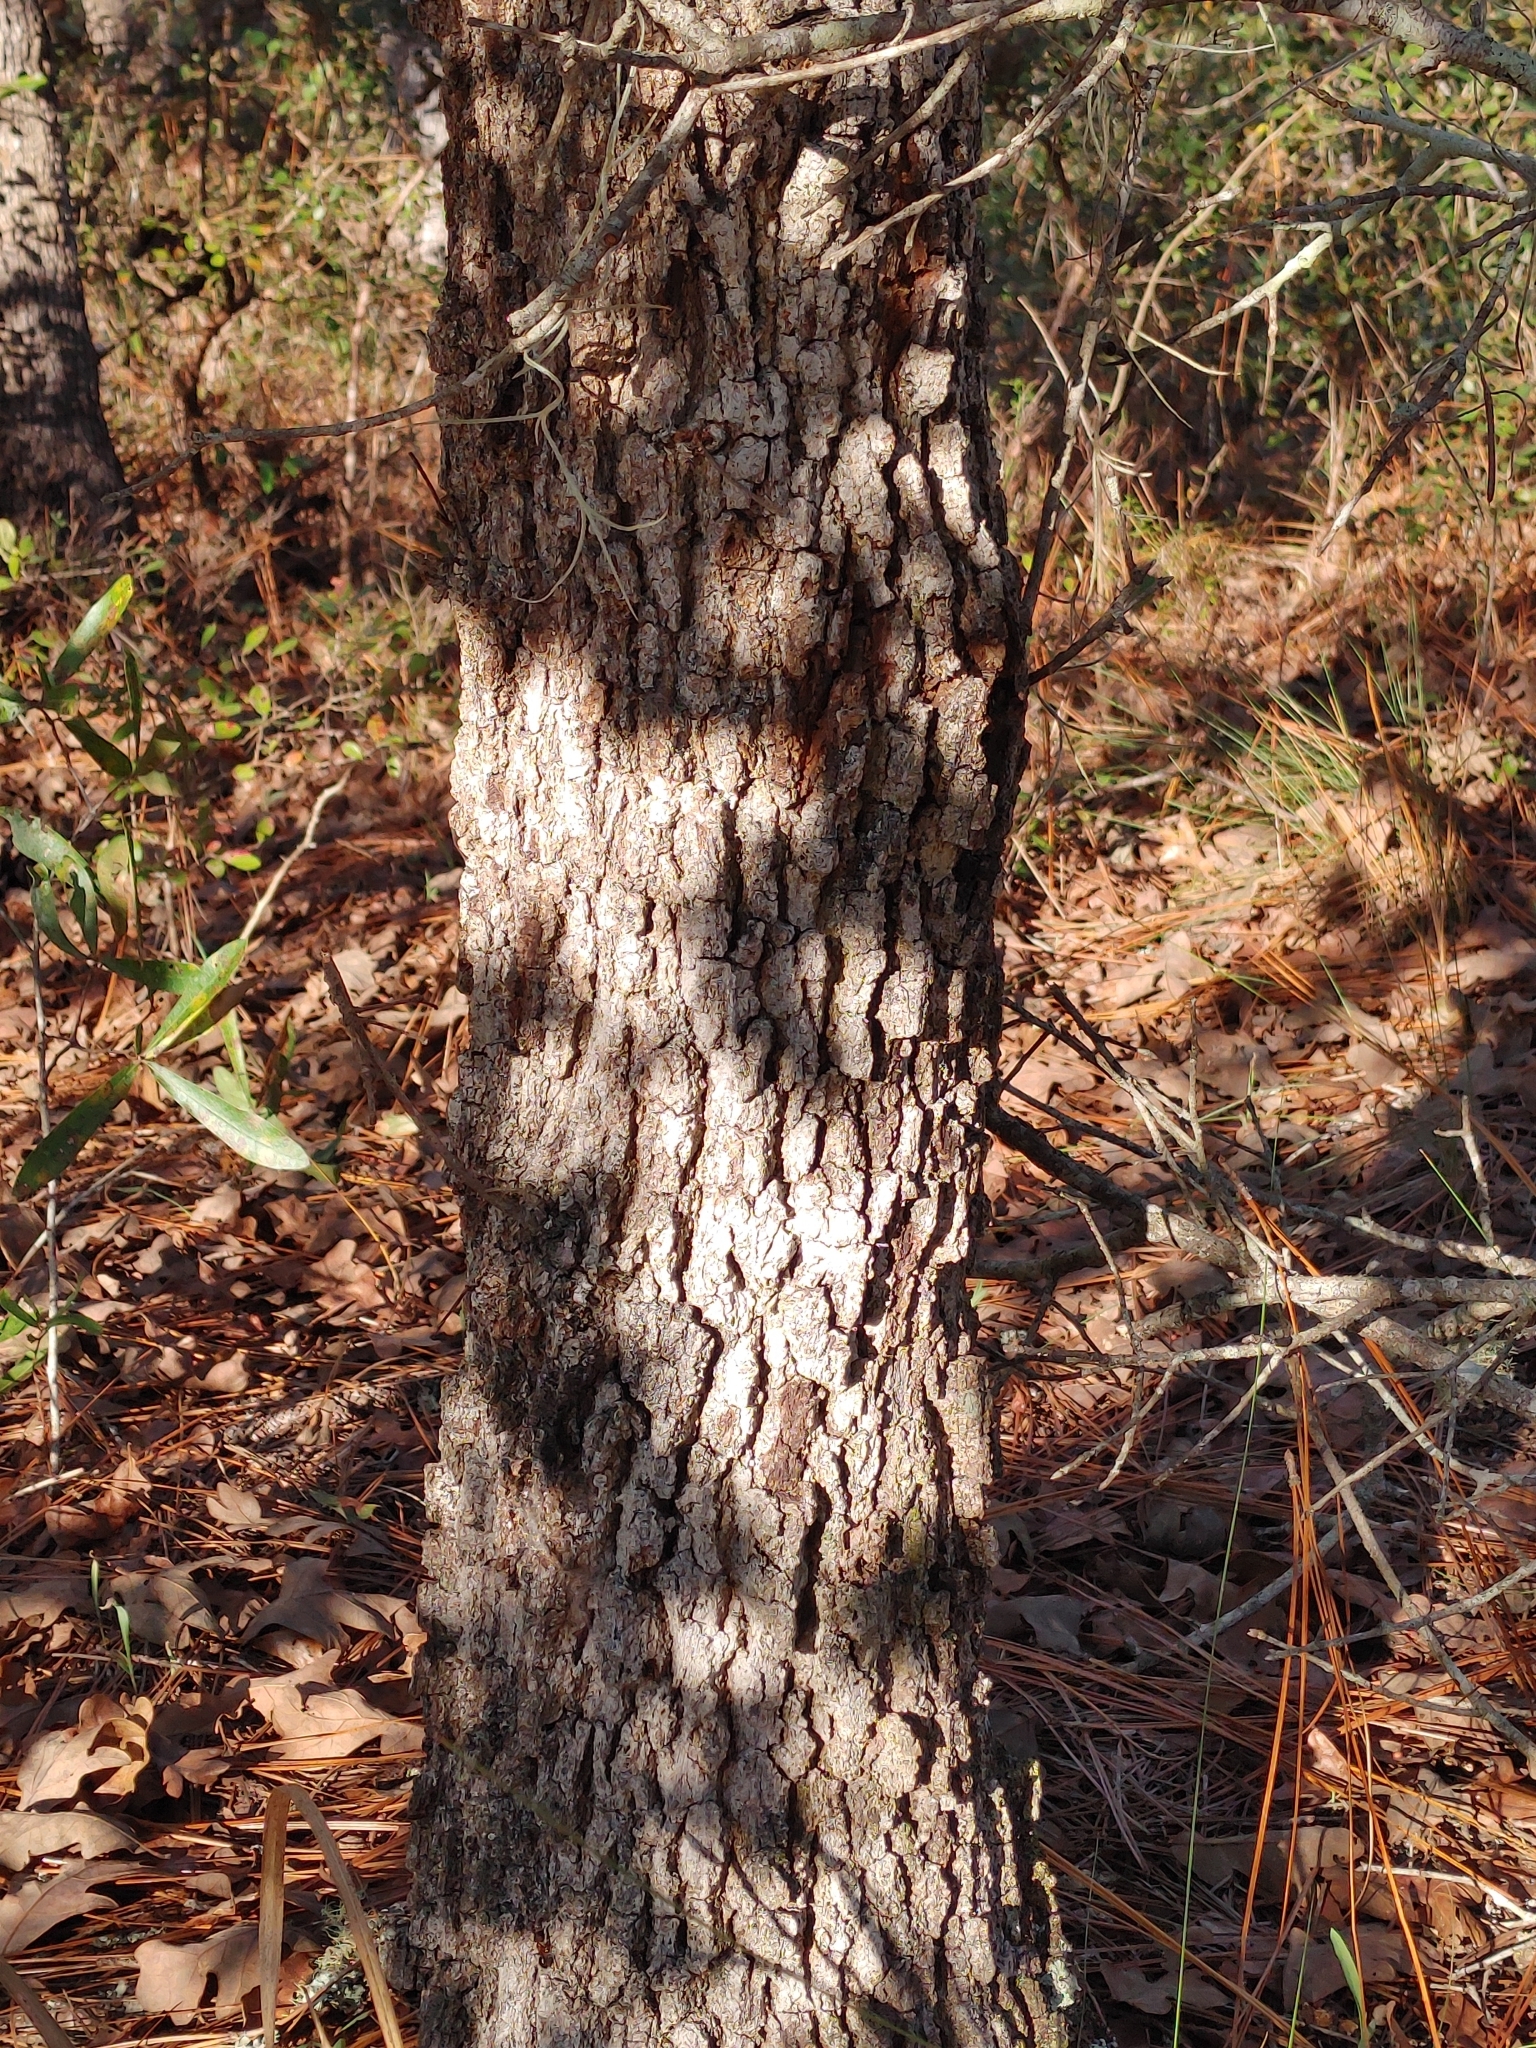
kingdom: Plantae
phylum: Tracheophyta
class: Magnoliopsida
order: Fagales
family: Fagaceae
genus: Quercus
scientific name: Quercus margaretiae
